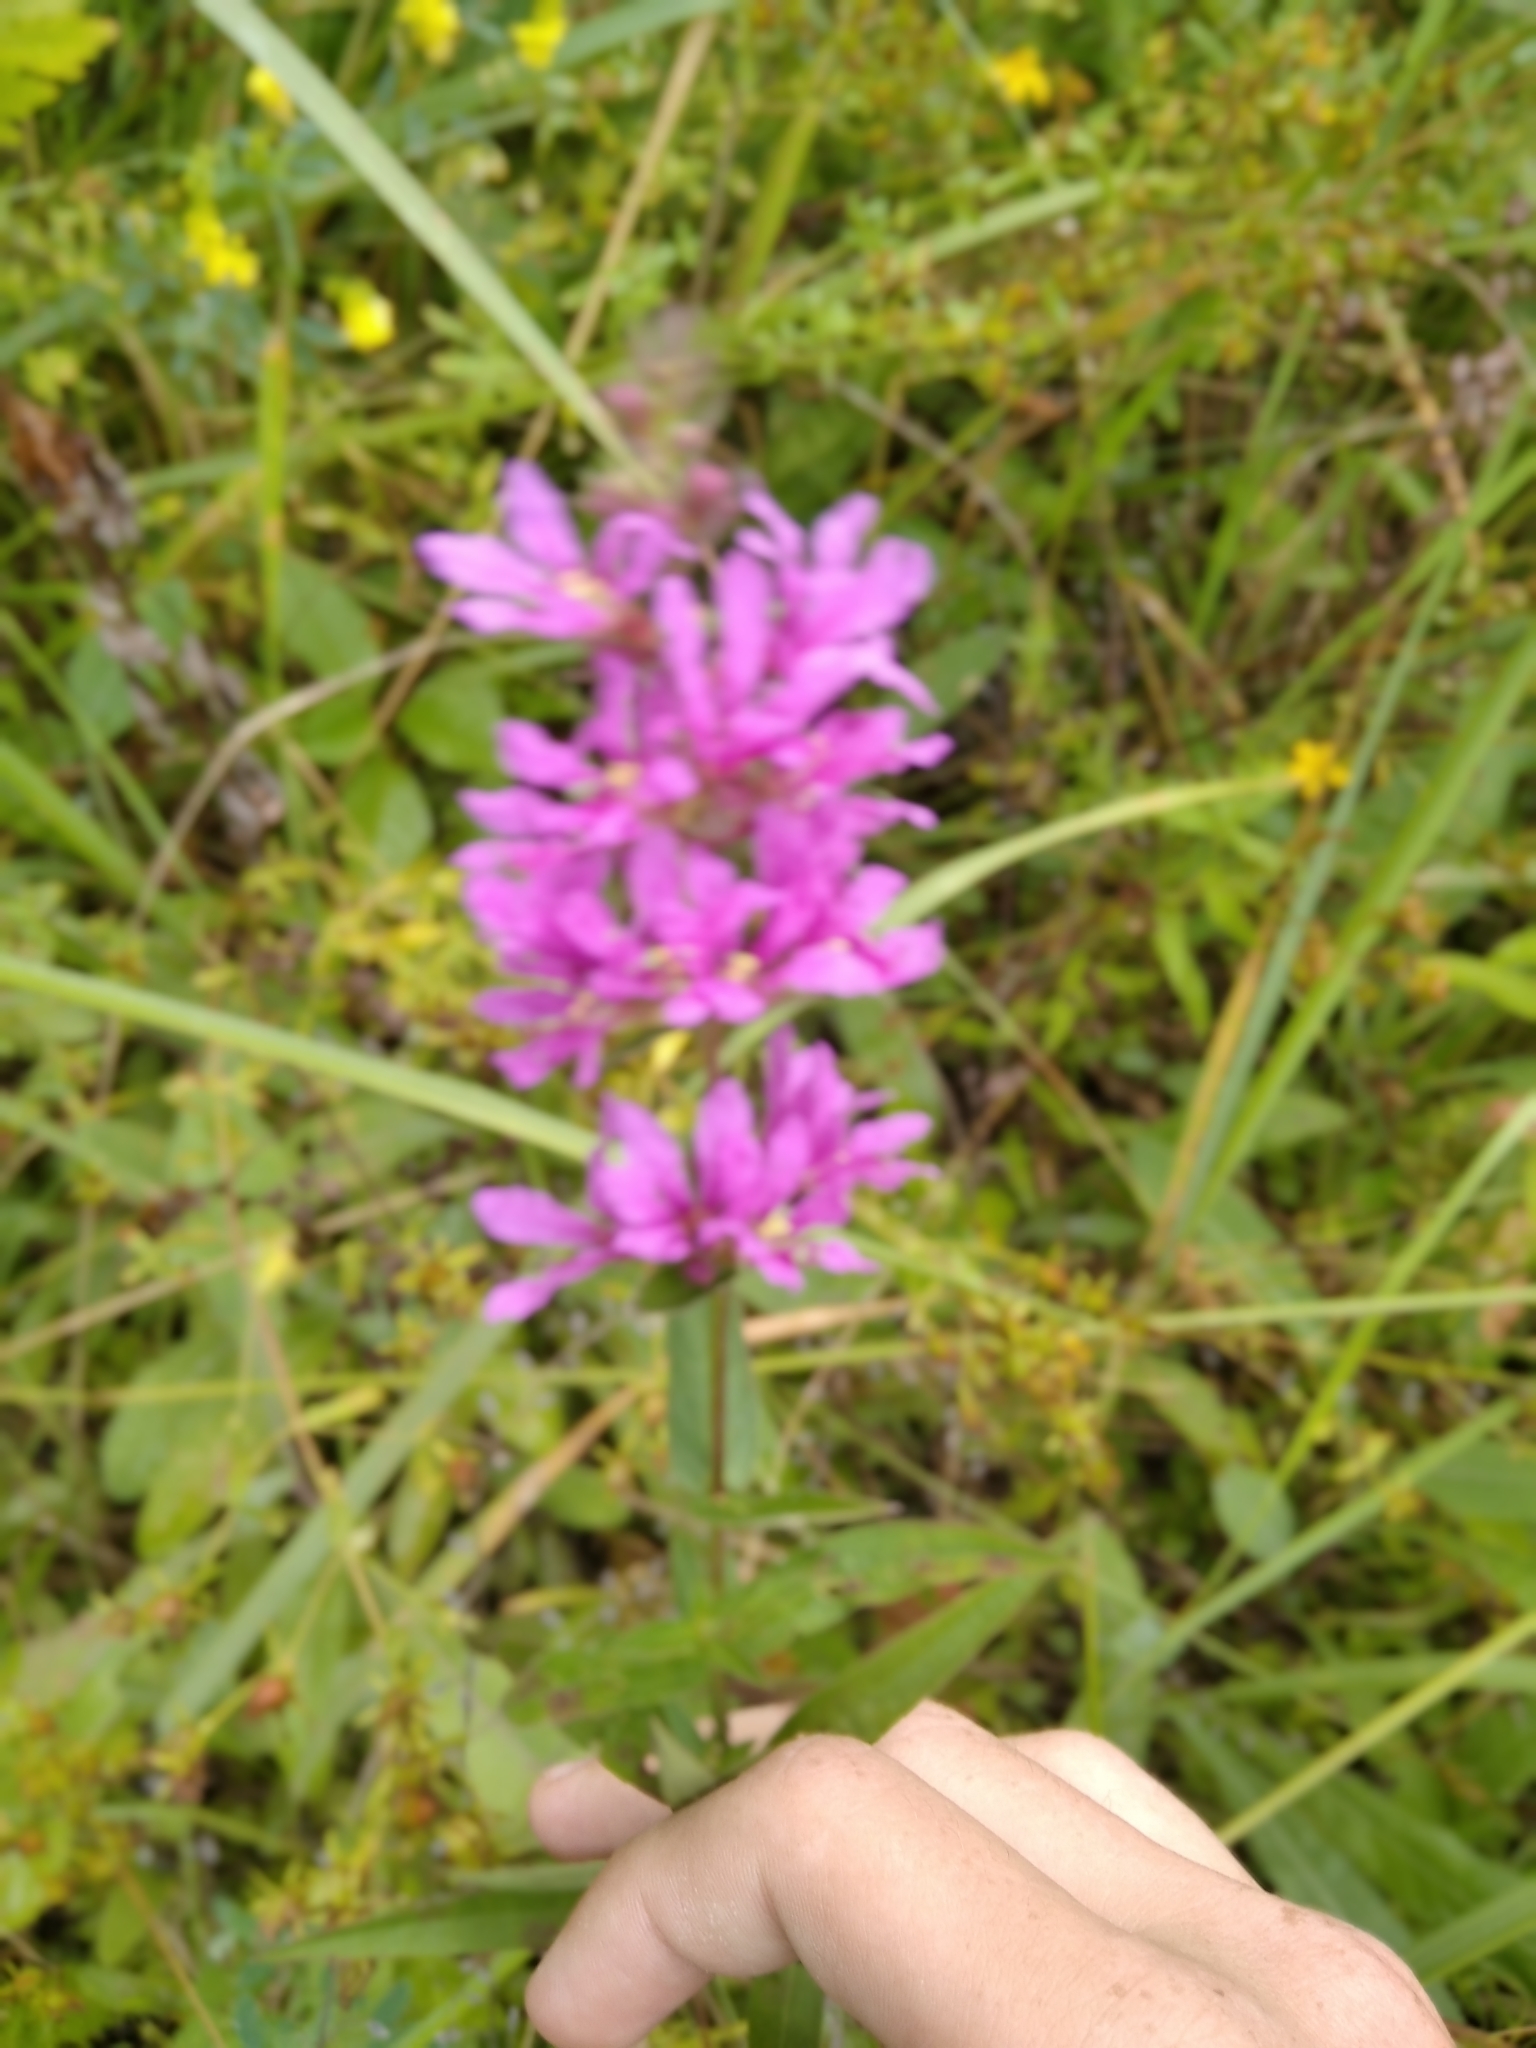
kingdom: Plantae
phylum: Tracheophyta
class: Magnoliopsida
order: Myrtales
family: Lythraceae
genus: Lythrum
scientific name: Lythrum salicaria
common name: Purple loosestrife
